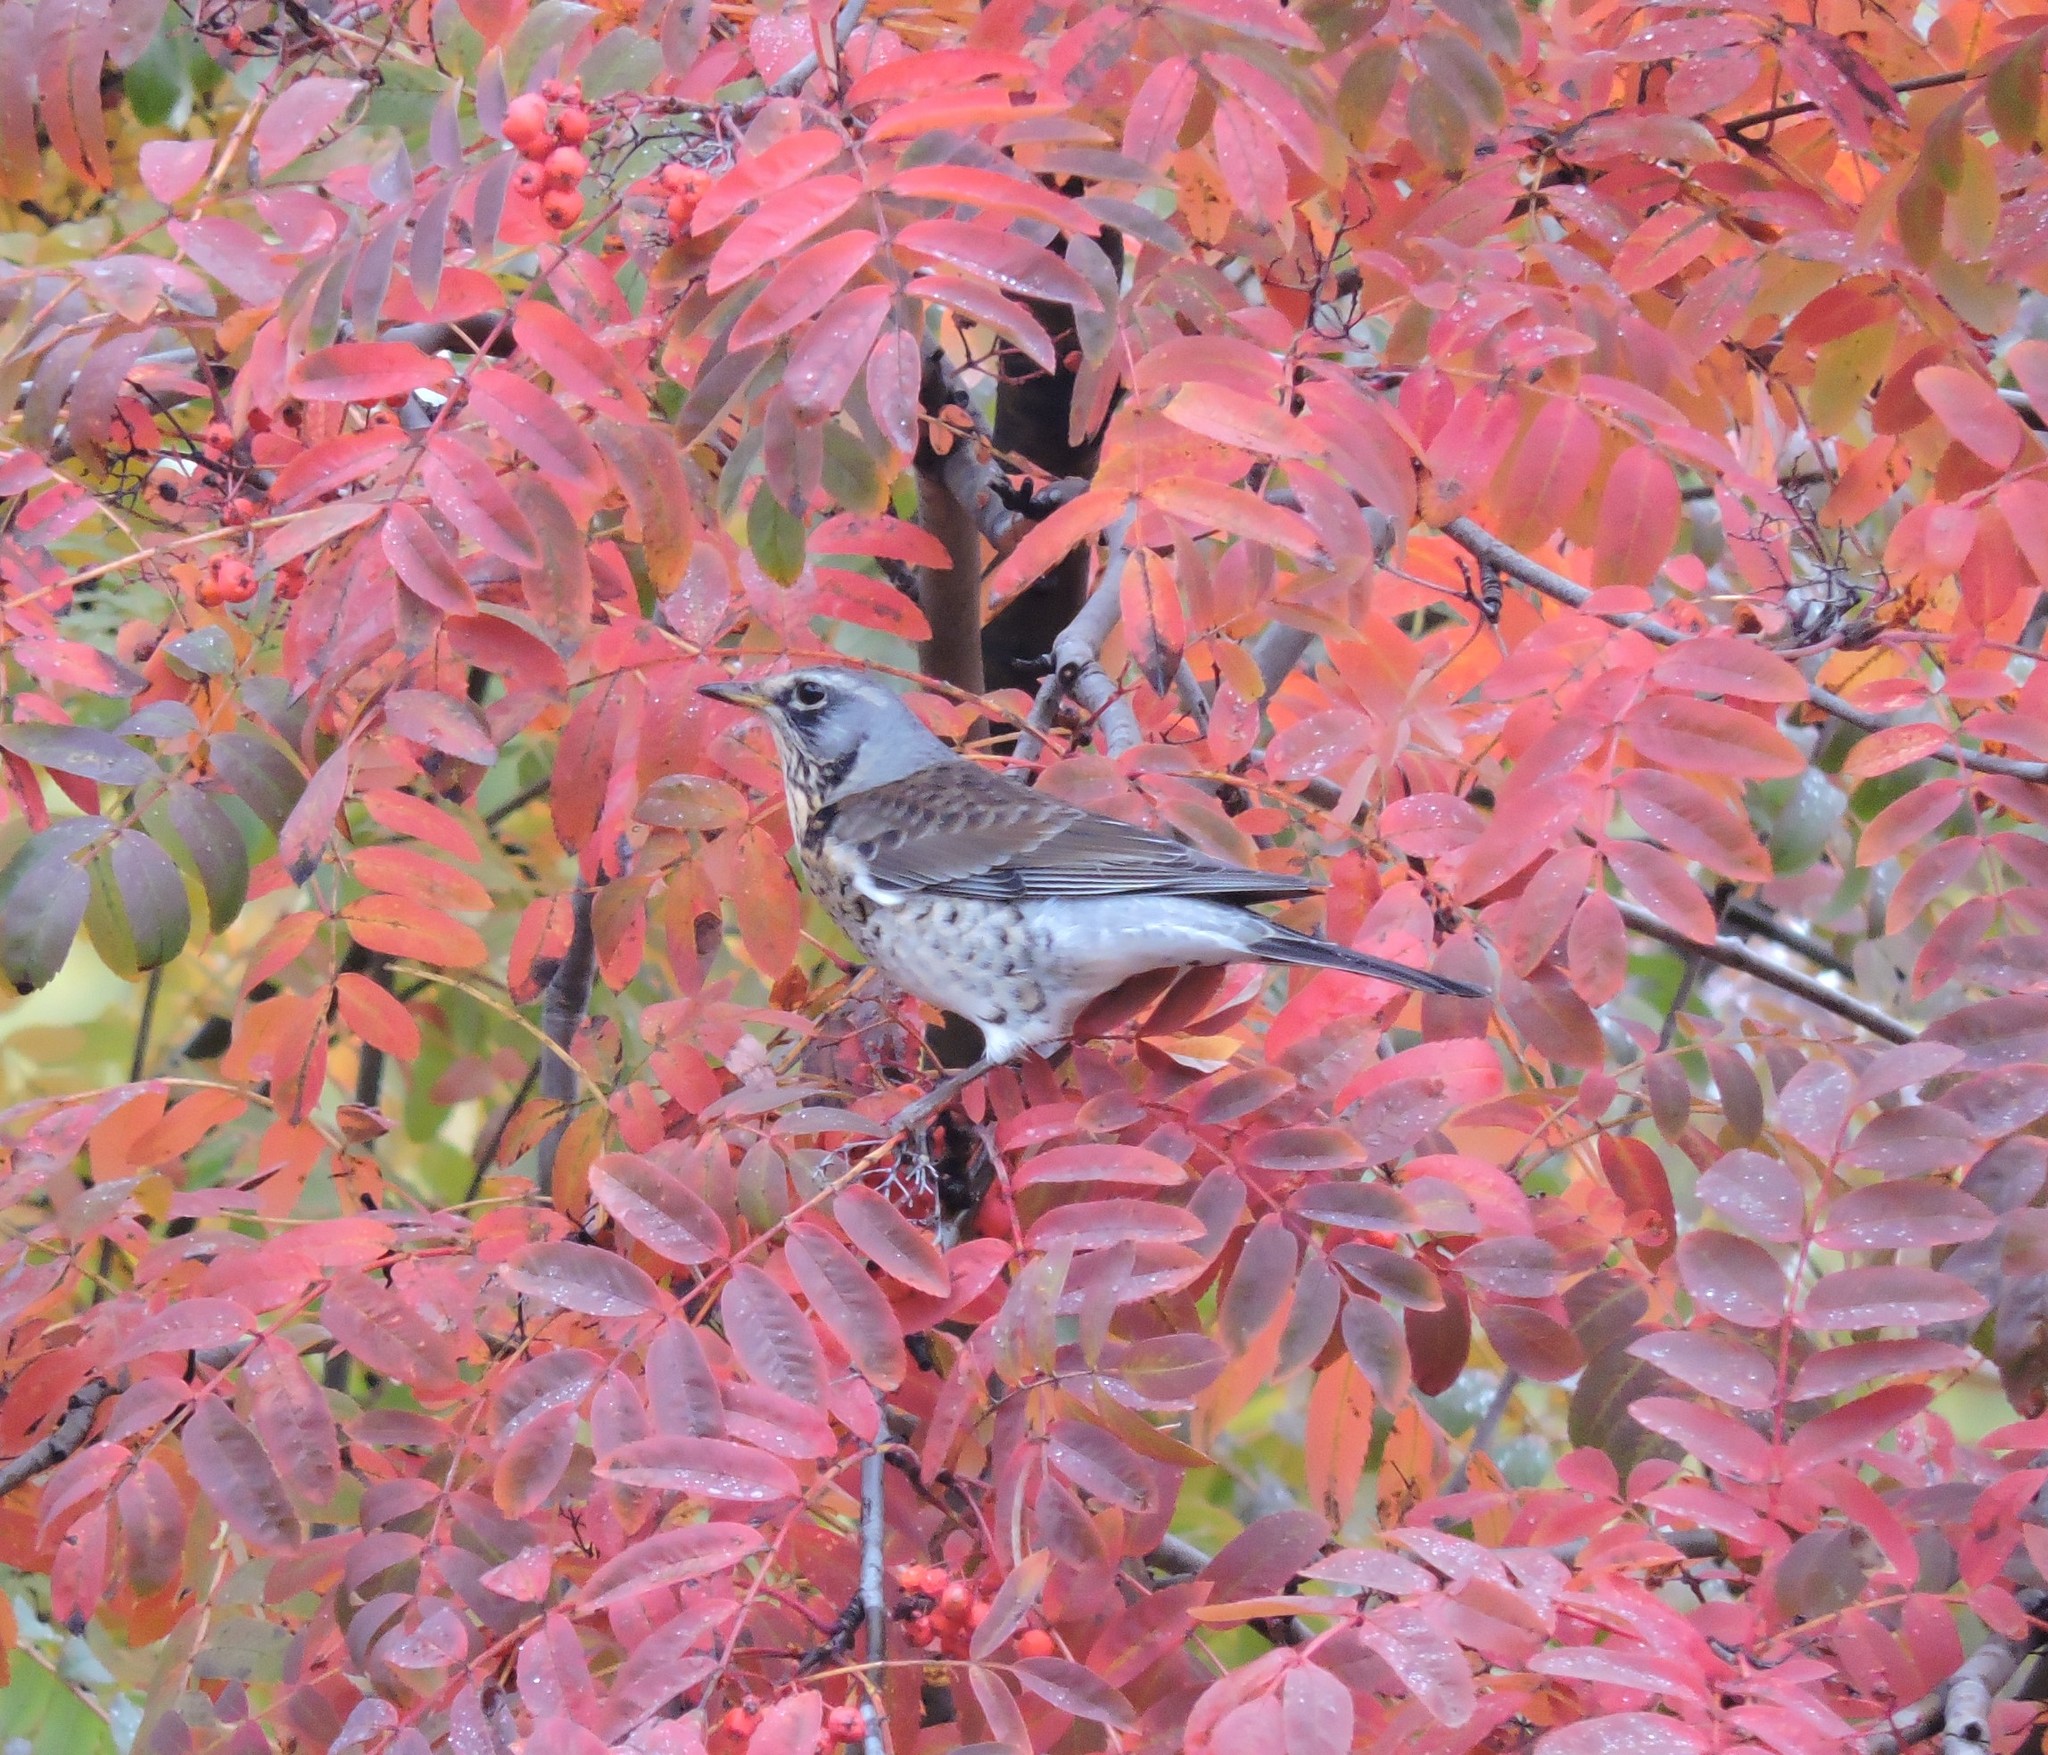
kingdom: Animalia
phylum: Chordata
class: Aves
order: Passeriformes
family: Turdidae
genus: Turdus
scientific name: Turdus pilaris
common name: Fieldfare
